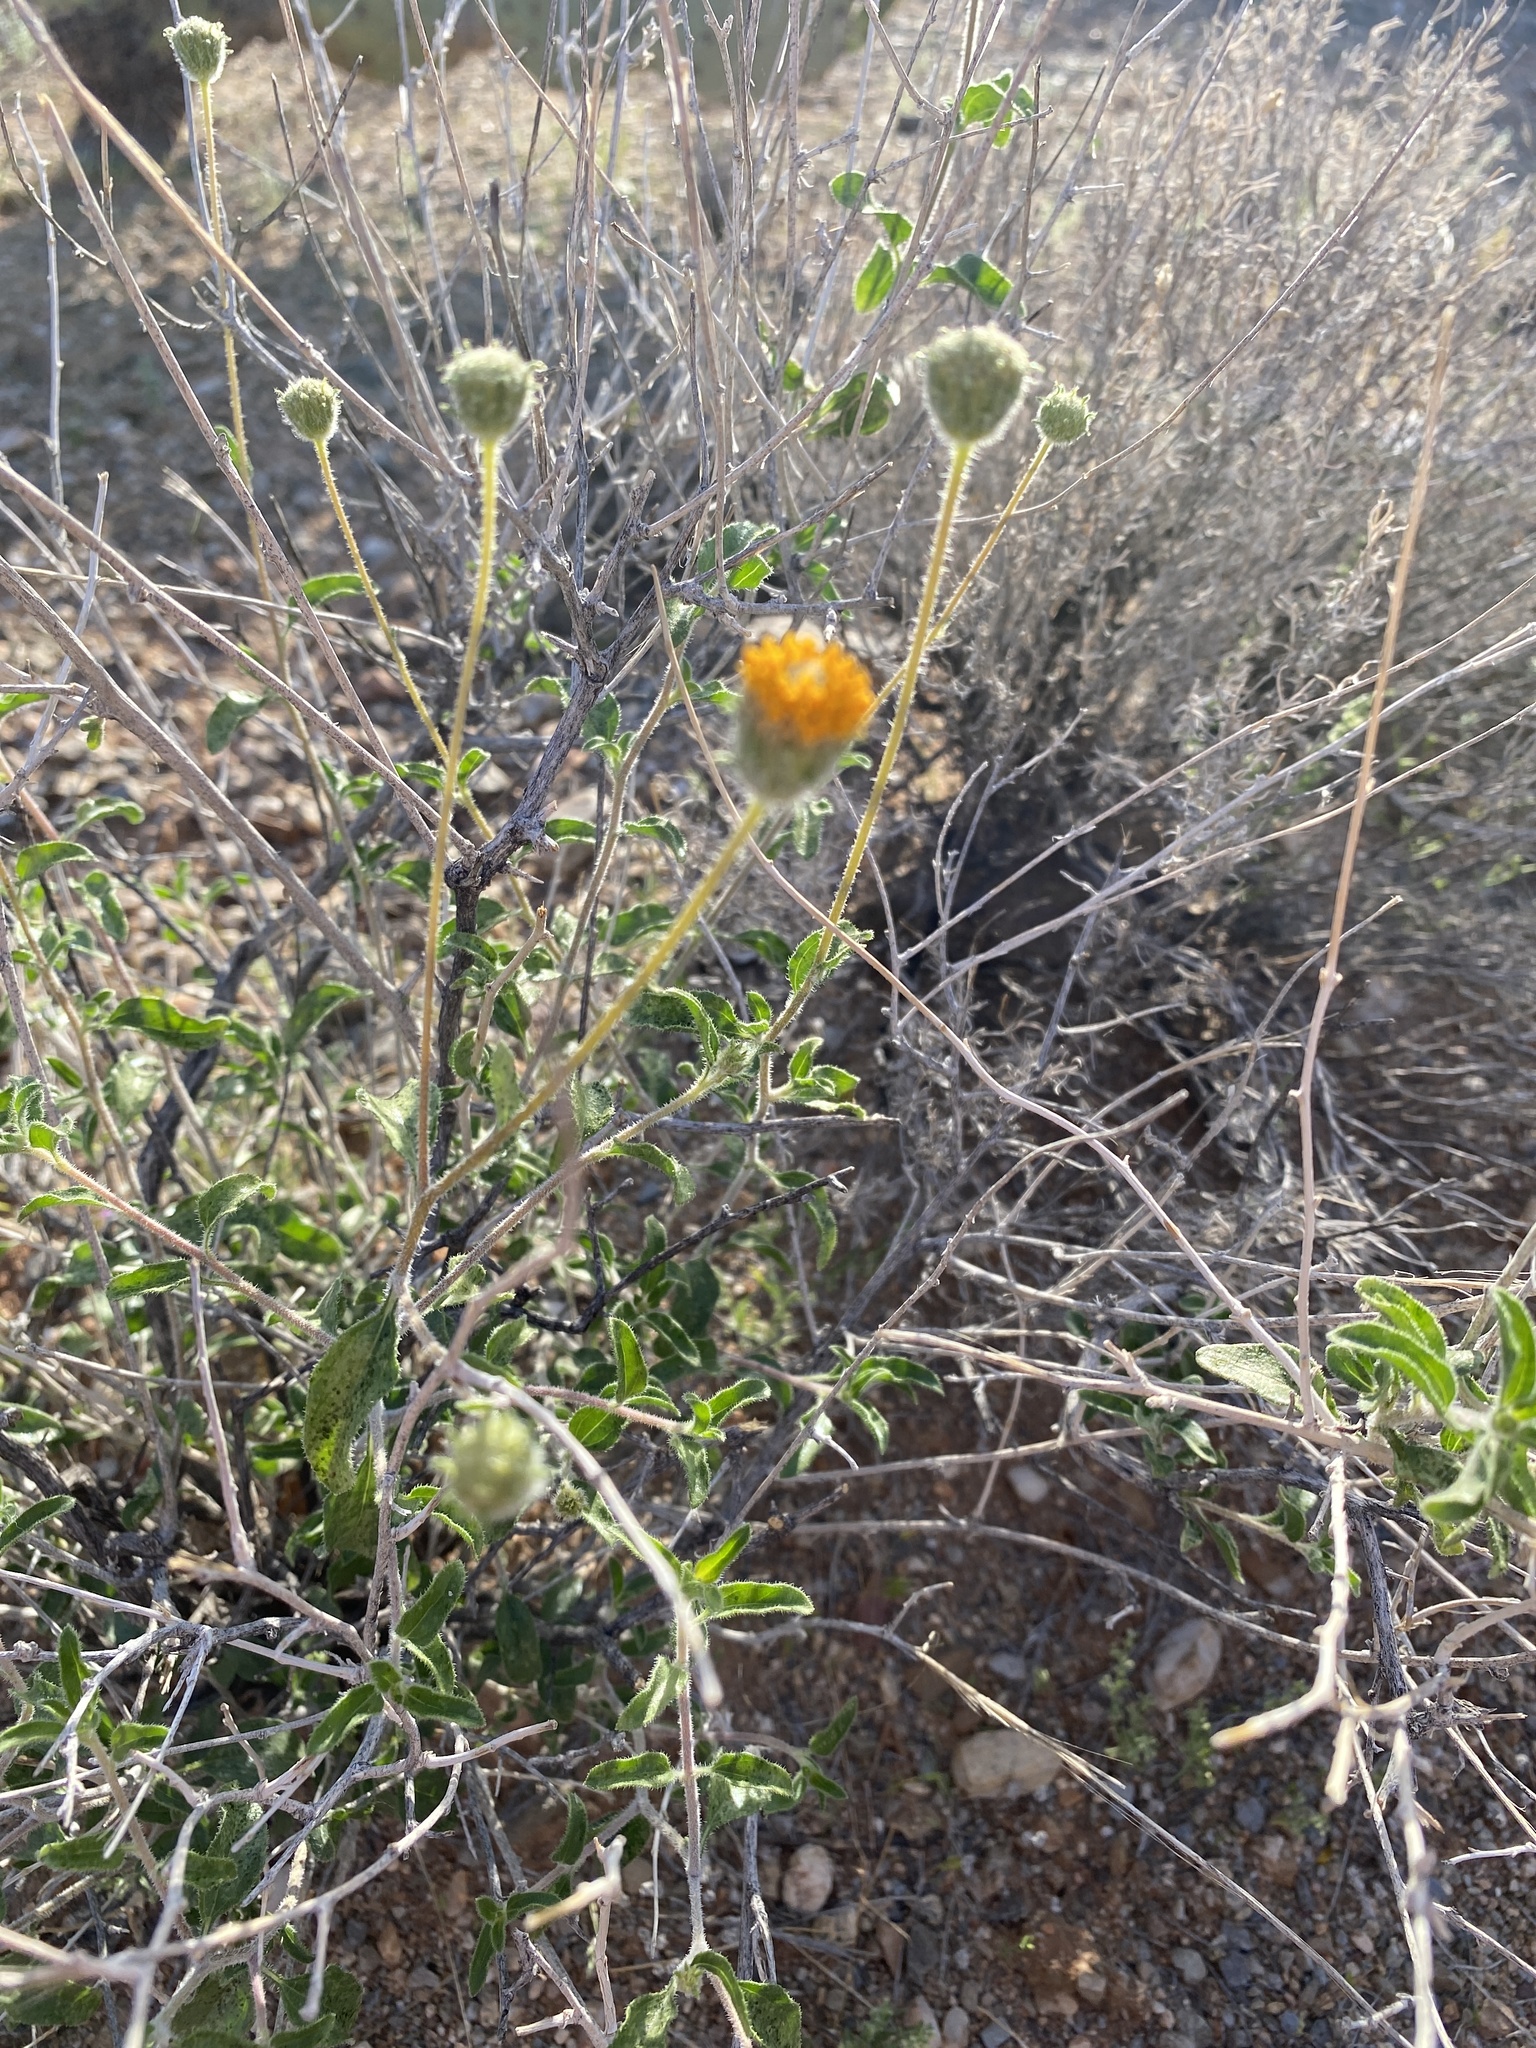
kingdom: Plantae
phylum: Tracheophyta
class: Magnoliopsida
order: Asterales
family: Asteraceae
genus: Encelia
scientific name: Encelia frutescens
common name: Bush encelia
